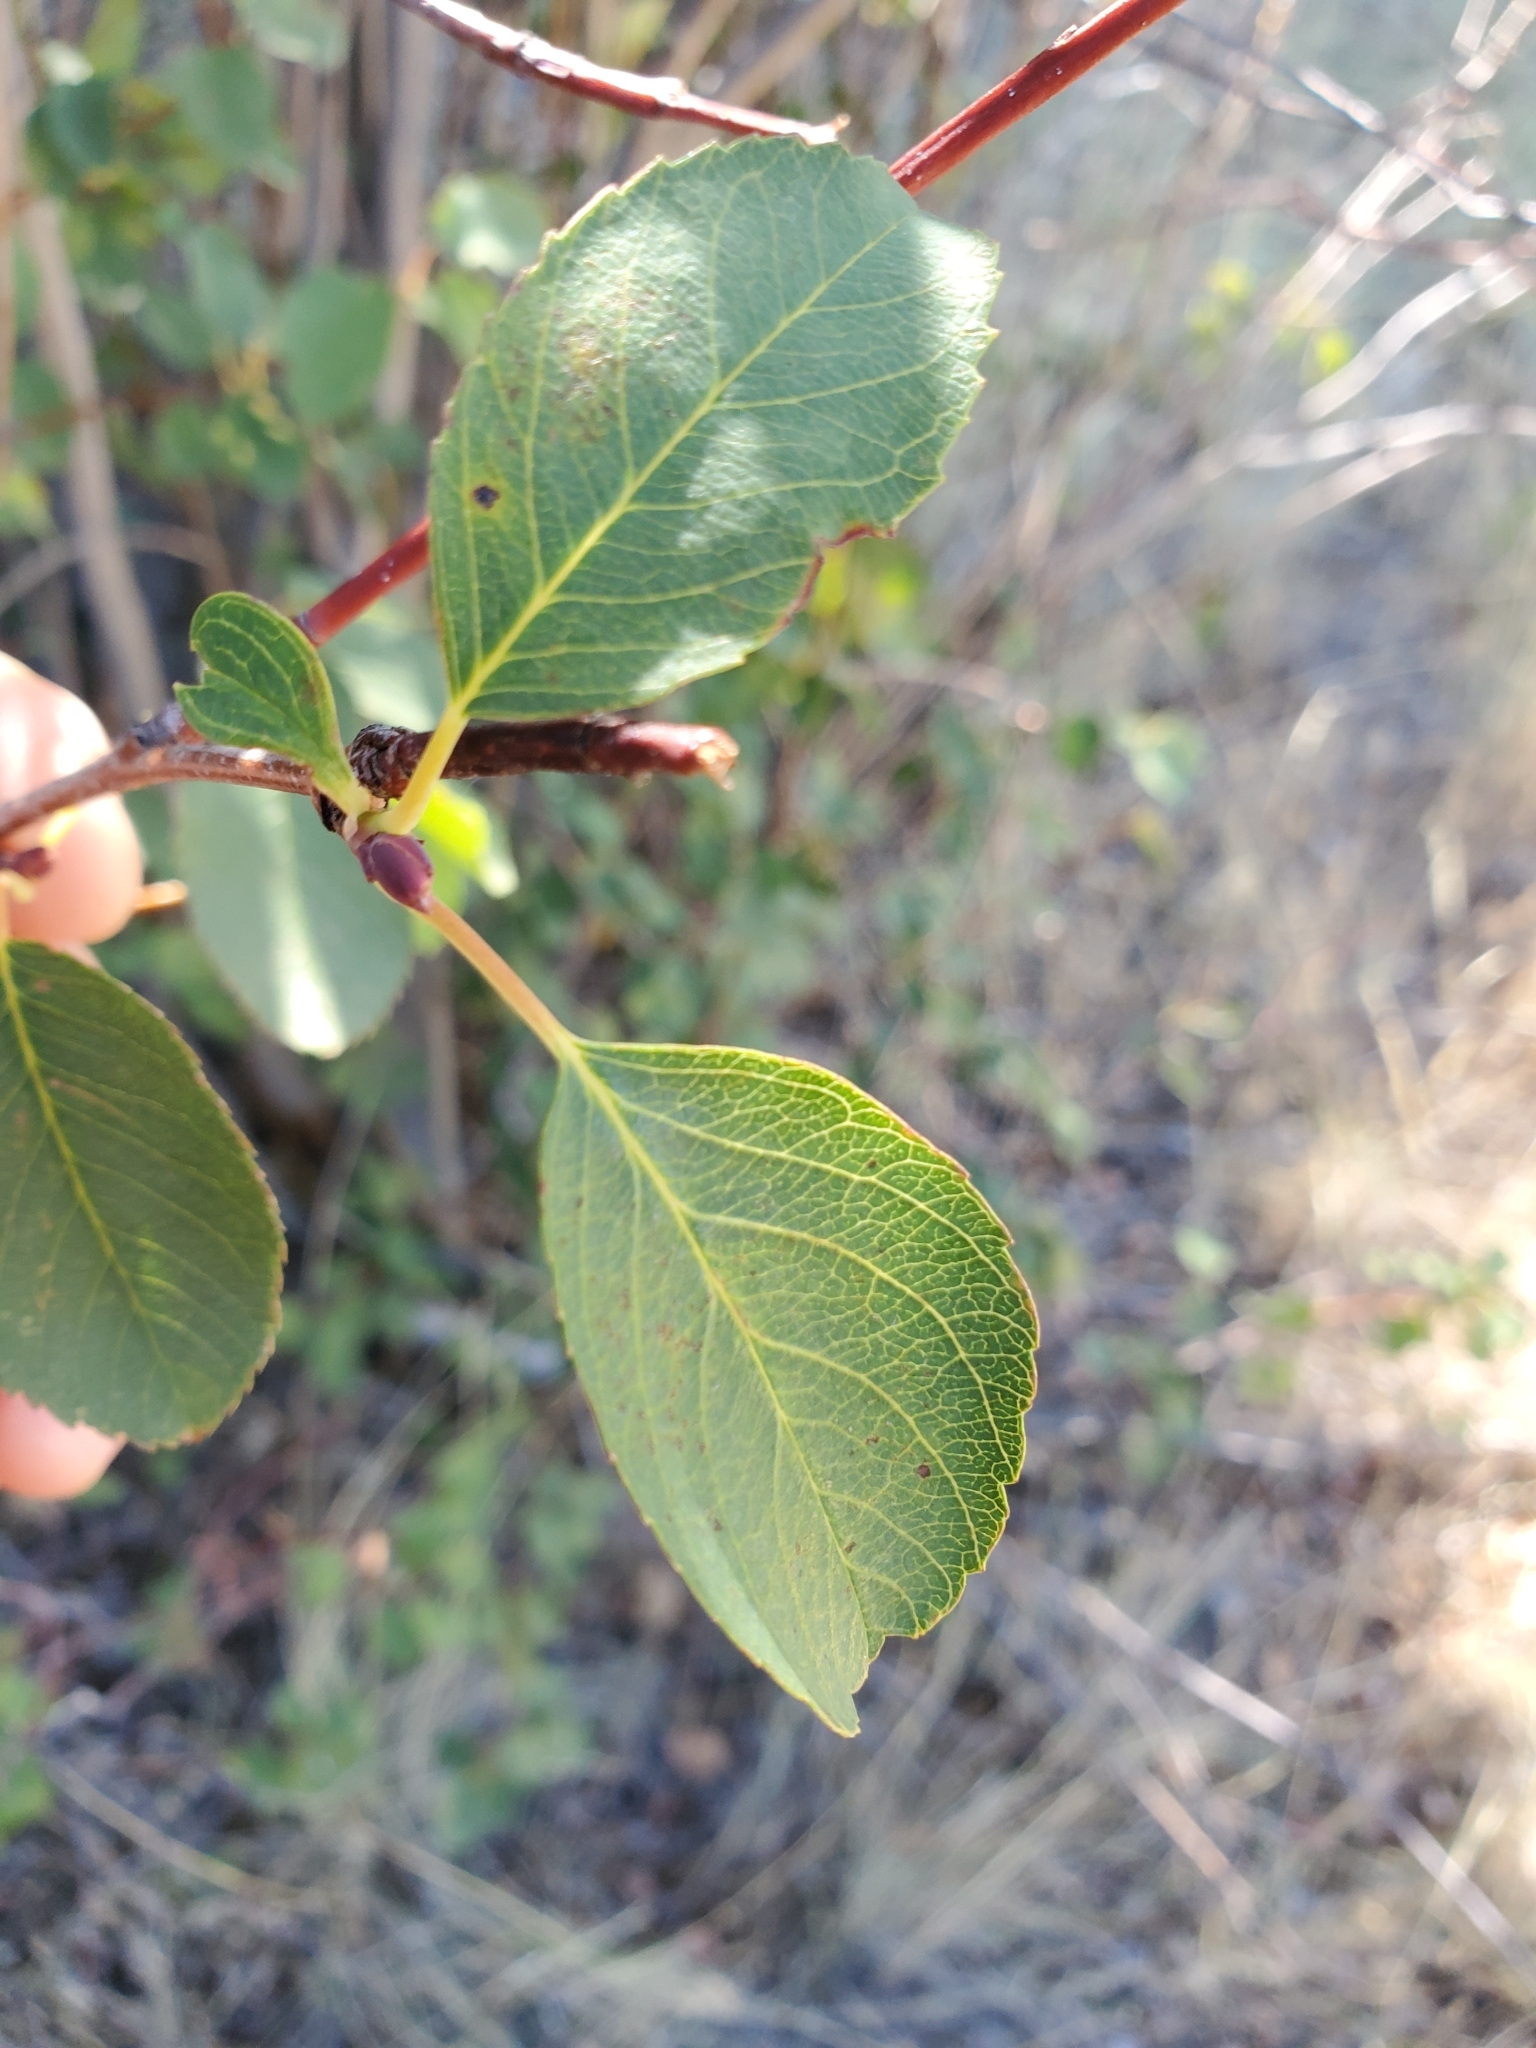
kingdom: Plantae
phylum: Tracheophyta
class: Magnoliopsida
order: Rosales
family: Rosaceae
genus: Amelanchier
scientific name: Amelanchier alnifolia
